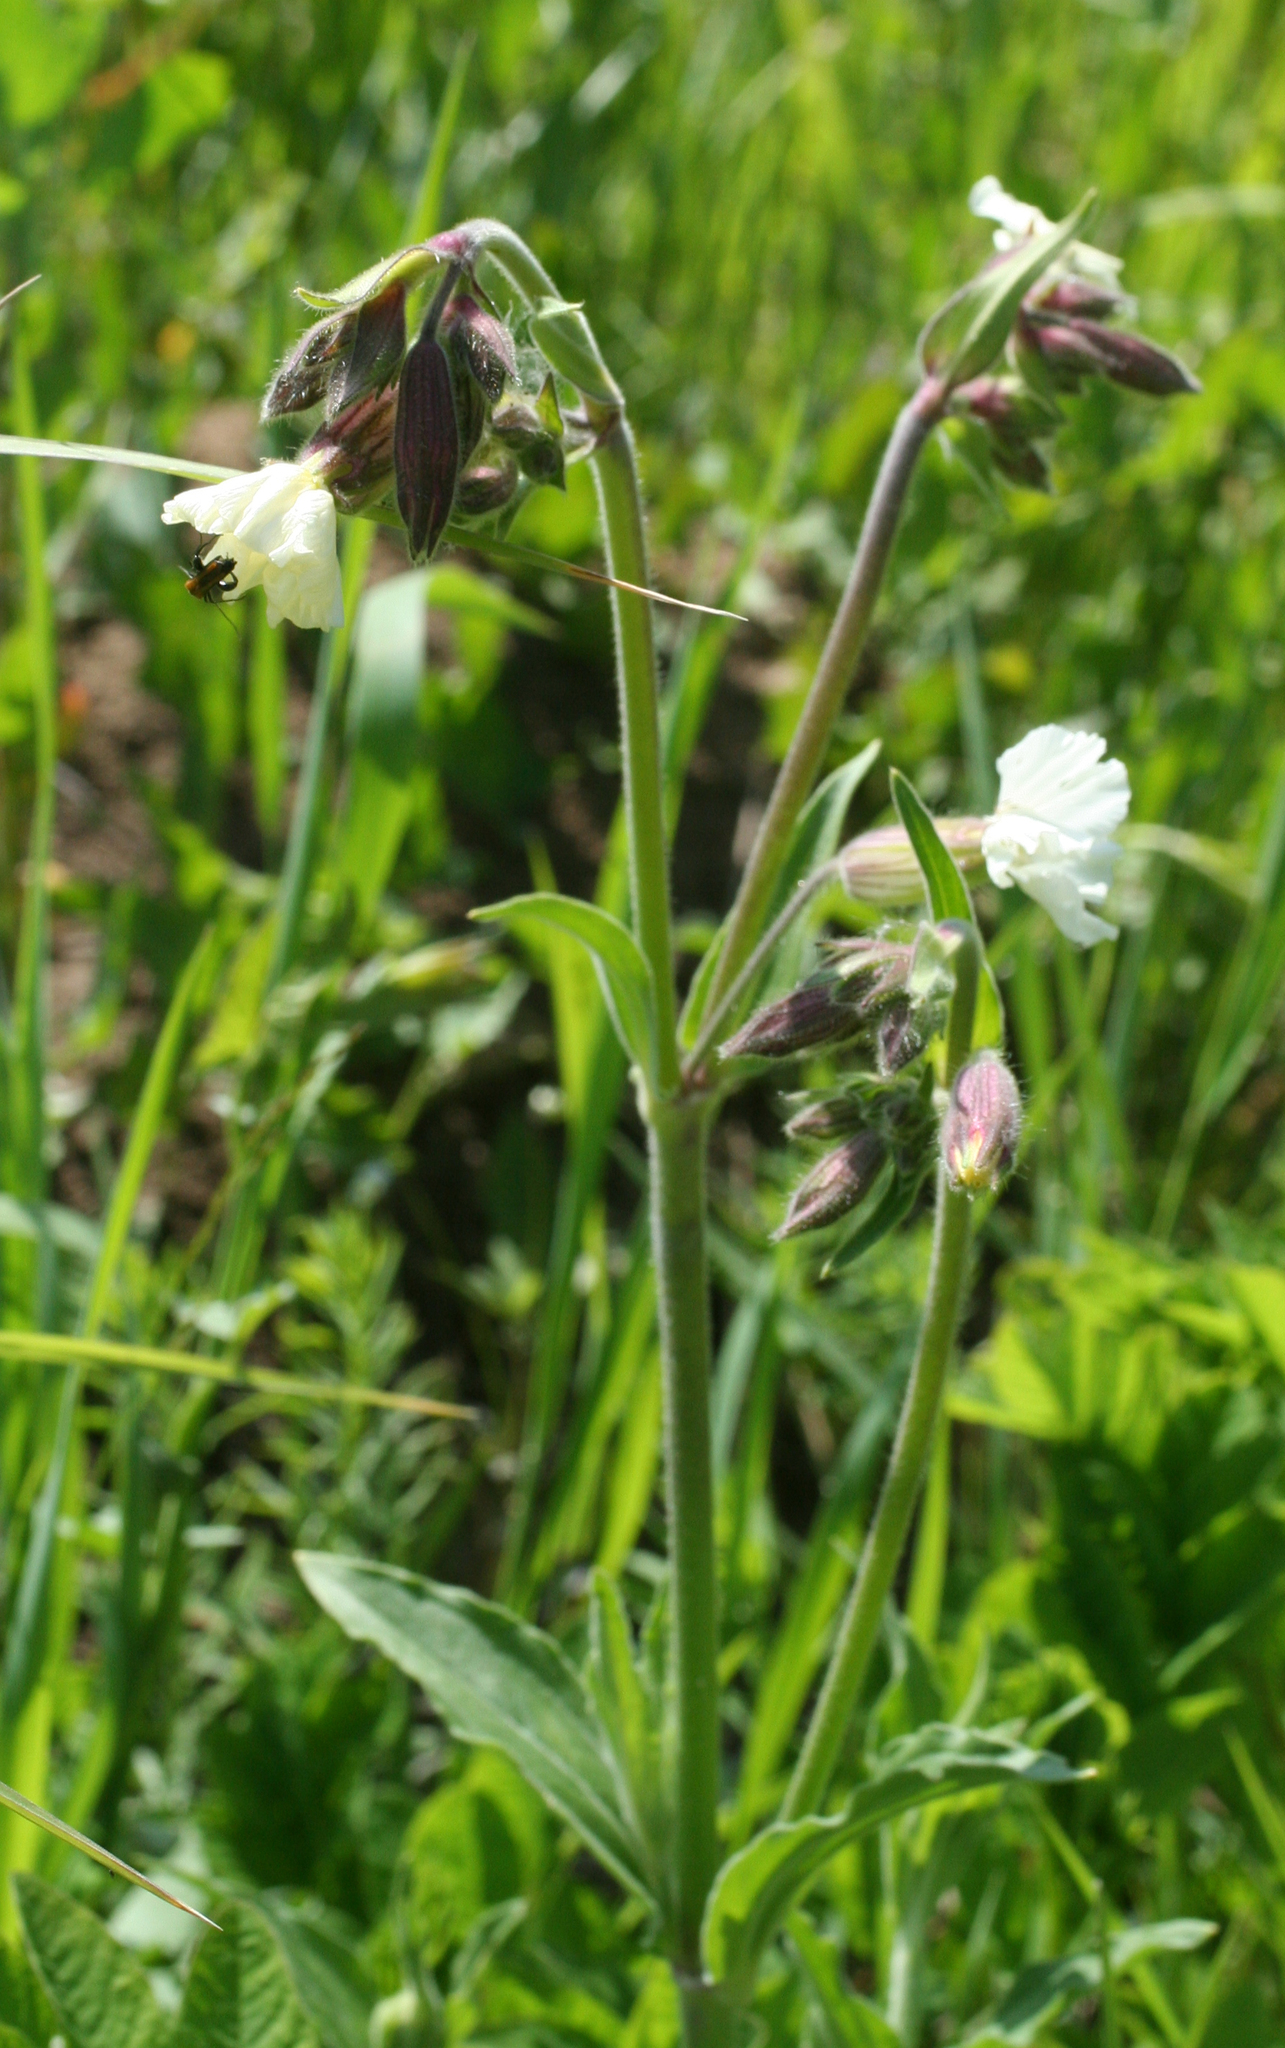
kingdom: Plantae
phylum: Tracheophyta
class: Magnoliopsida
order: Caryophyllales
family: Caryophyllaceae
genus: Silene
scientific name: Silene latifolia
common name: White campion
